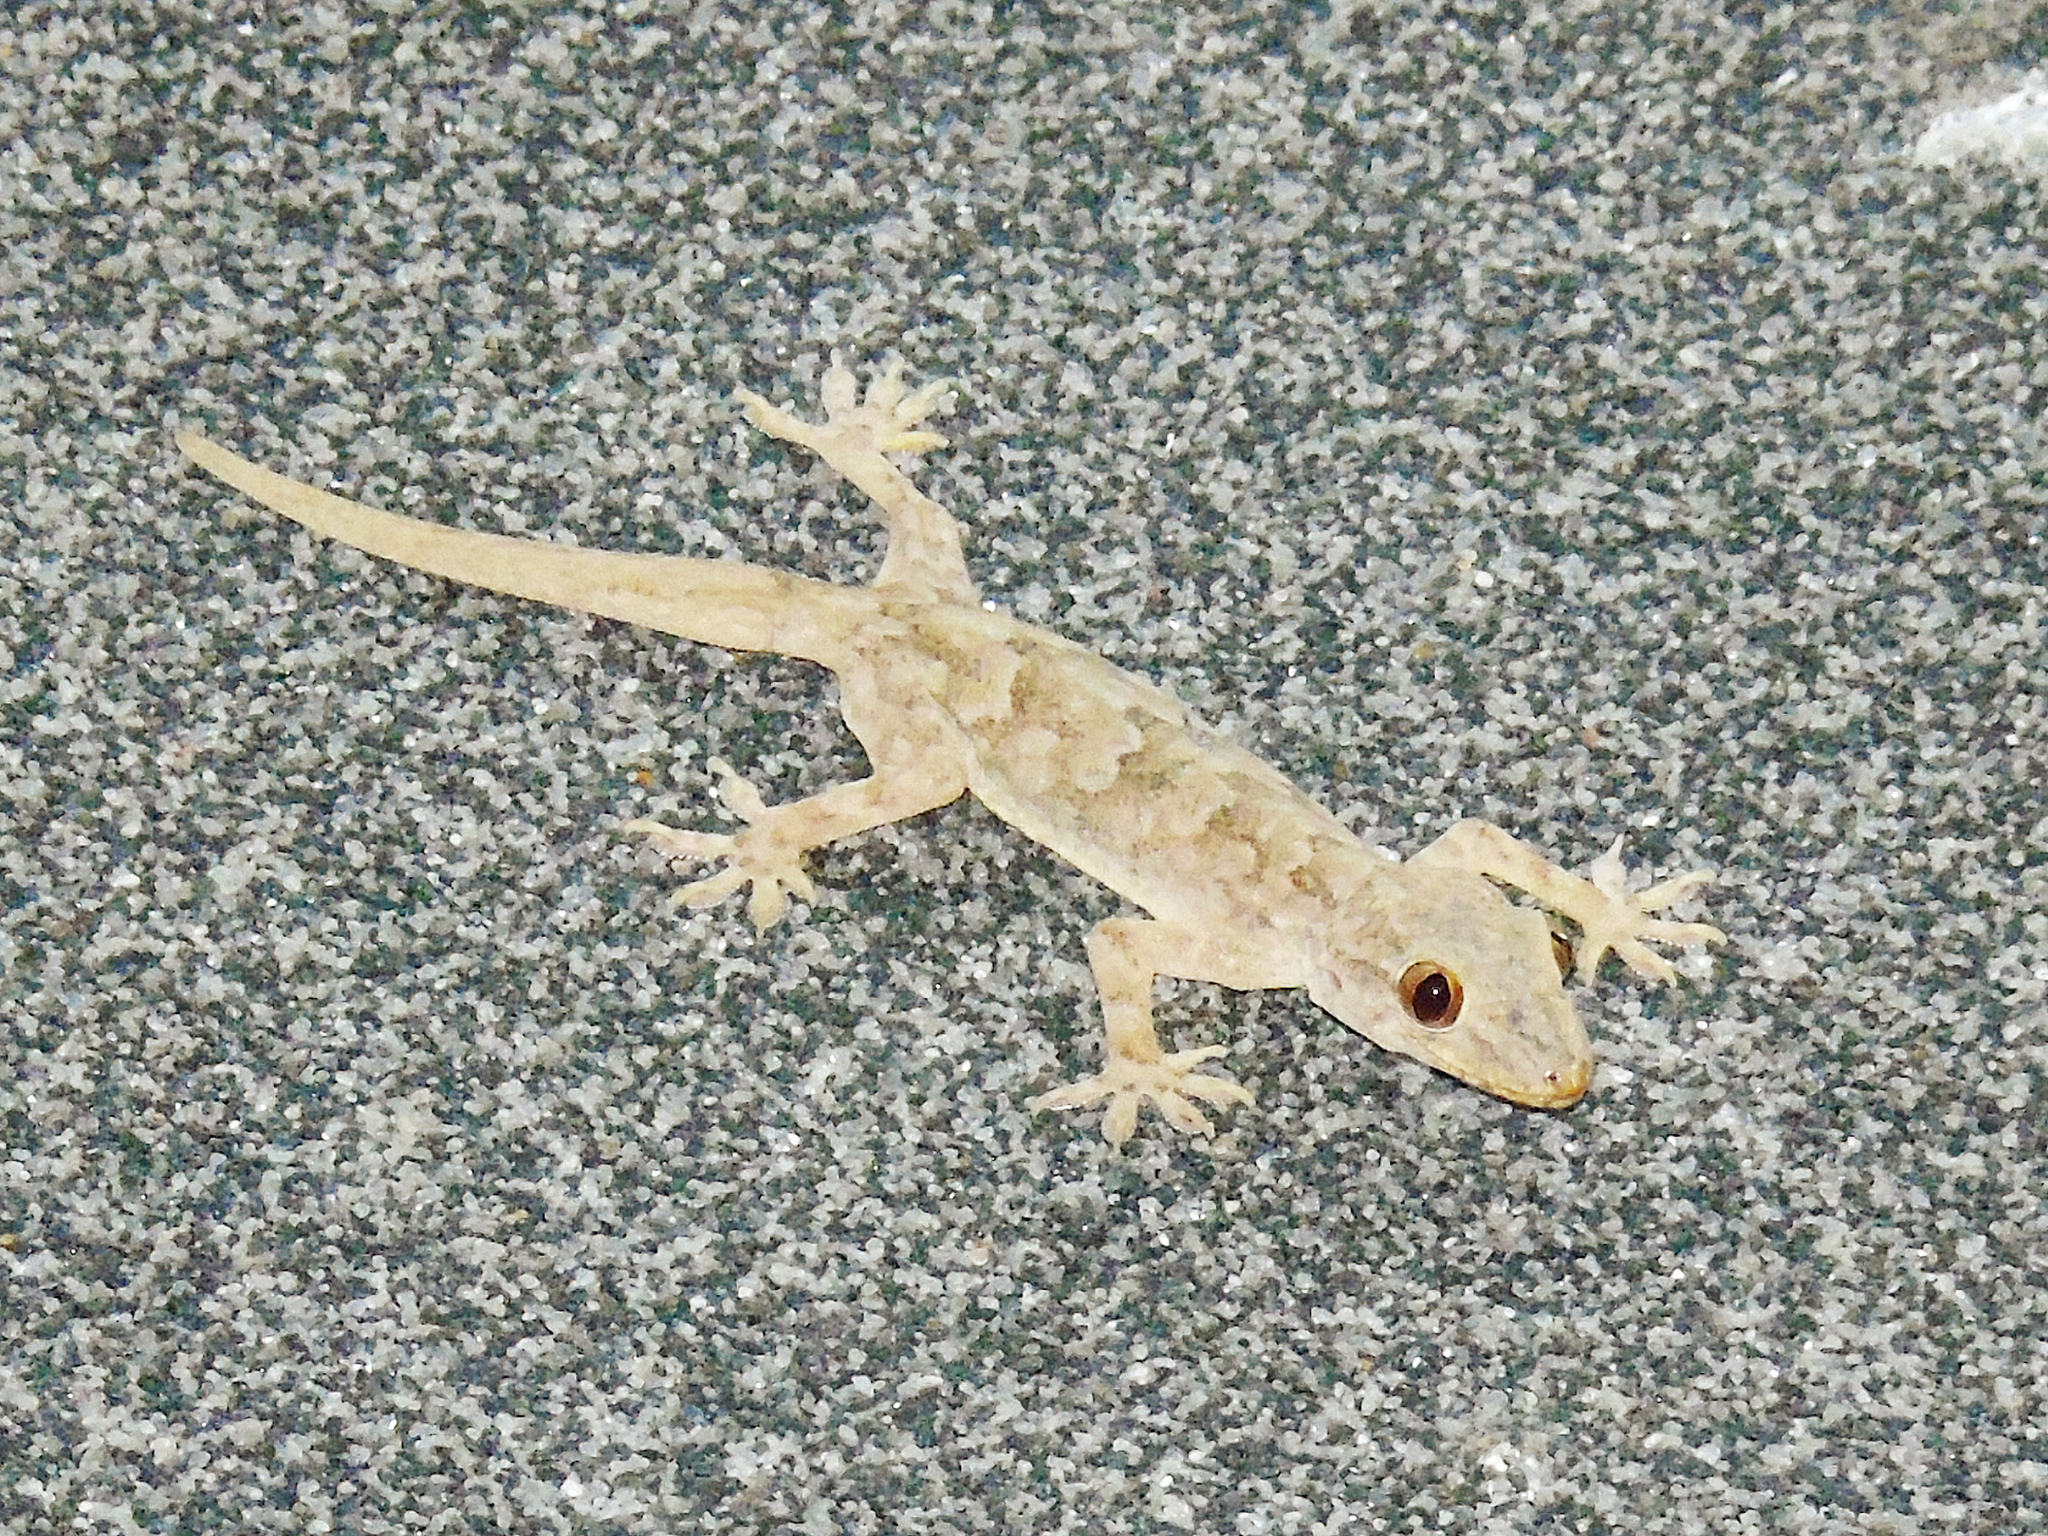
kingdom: Animalia
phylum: Chordata
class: Squamata
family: Gekkonidae
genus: Hemidactylus
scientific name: Hemidactylus flaviviridis
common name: Northern house gecko
